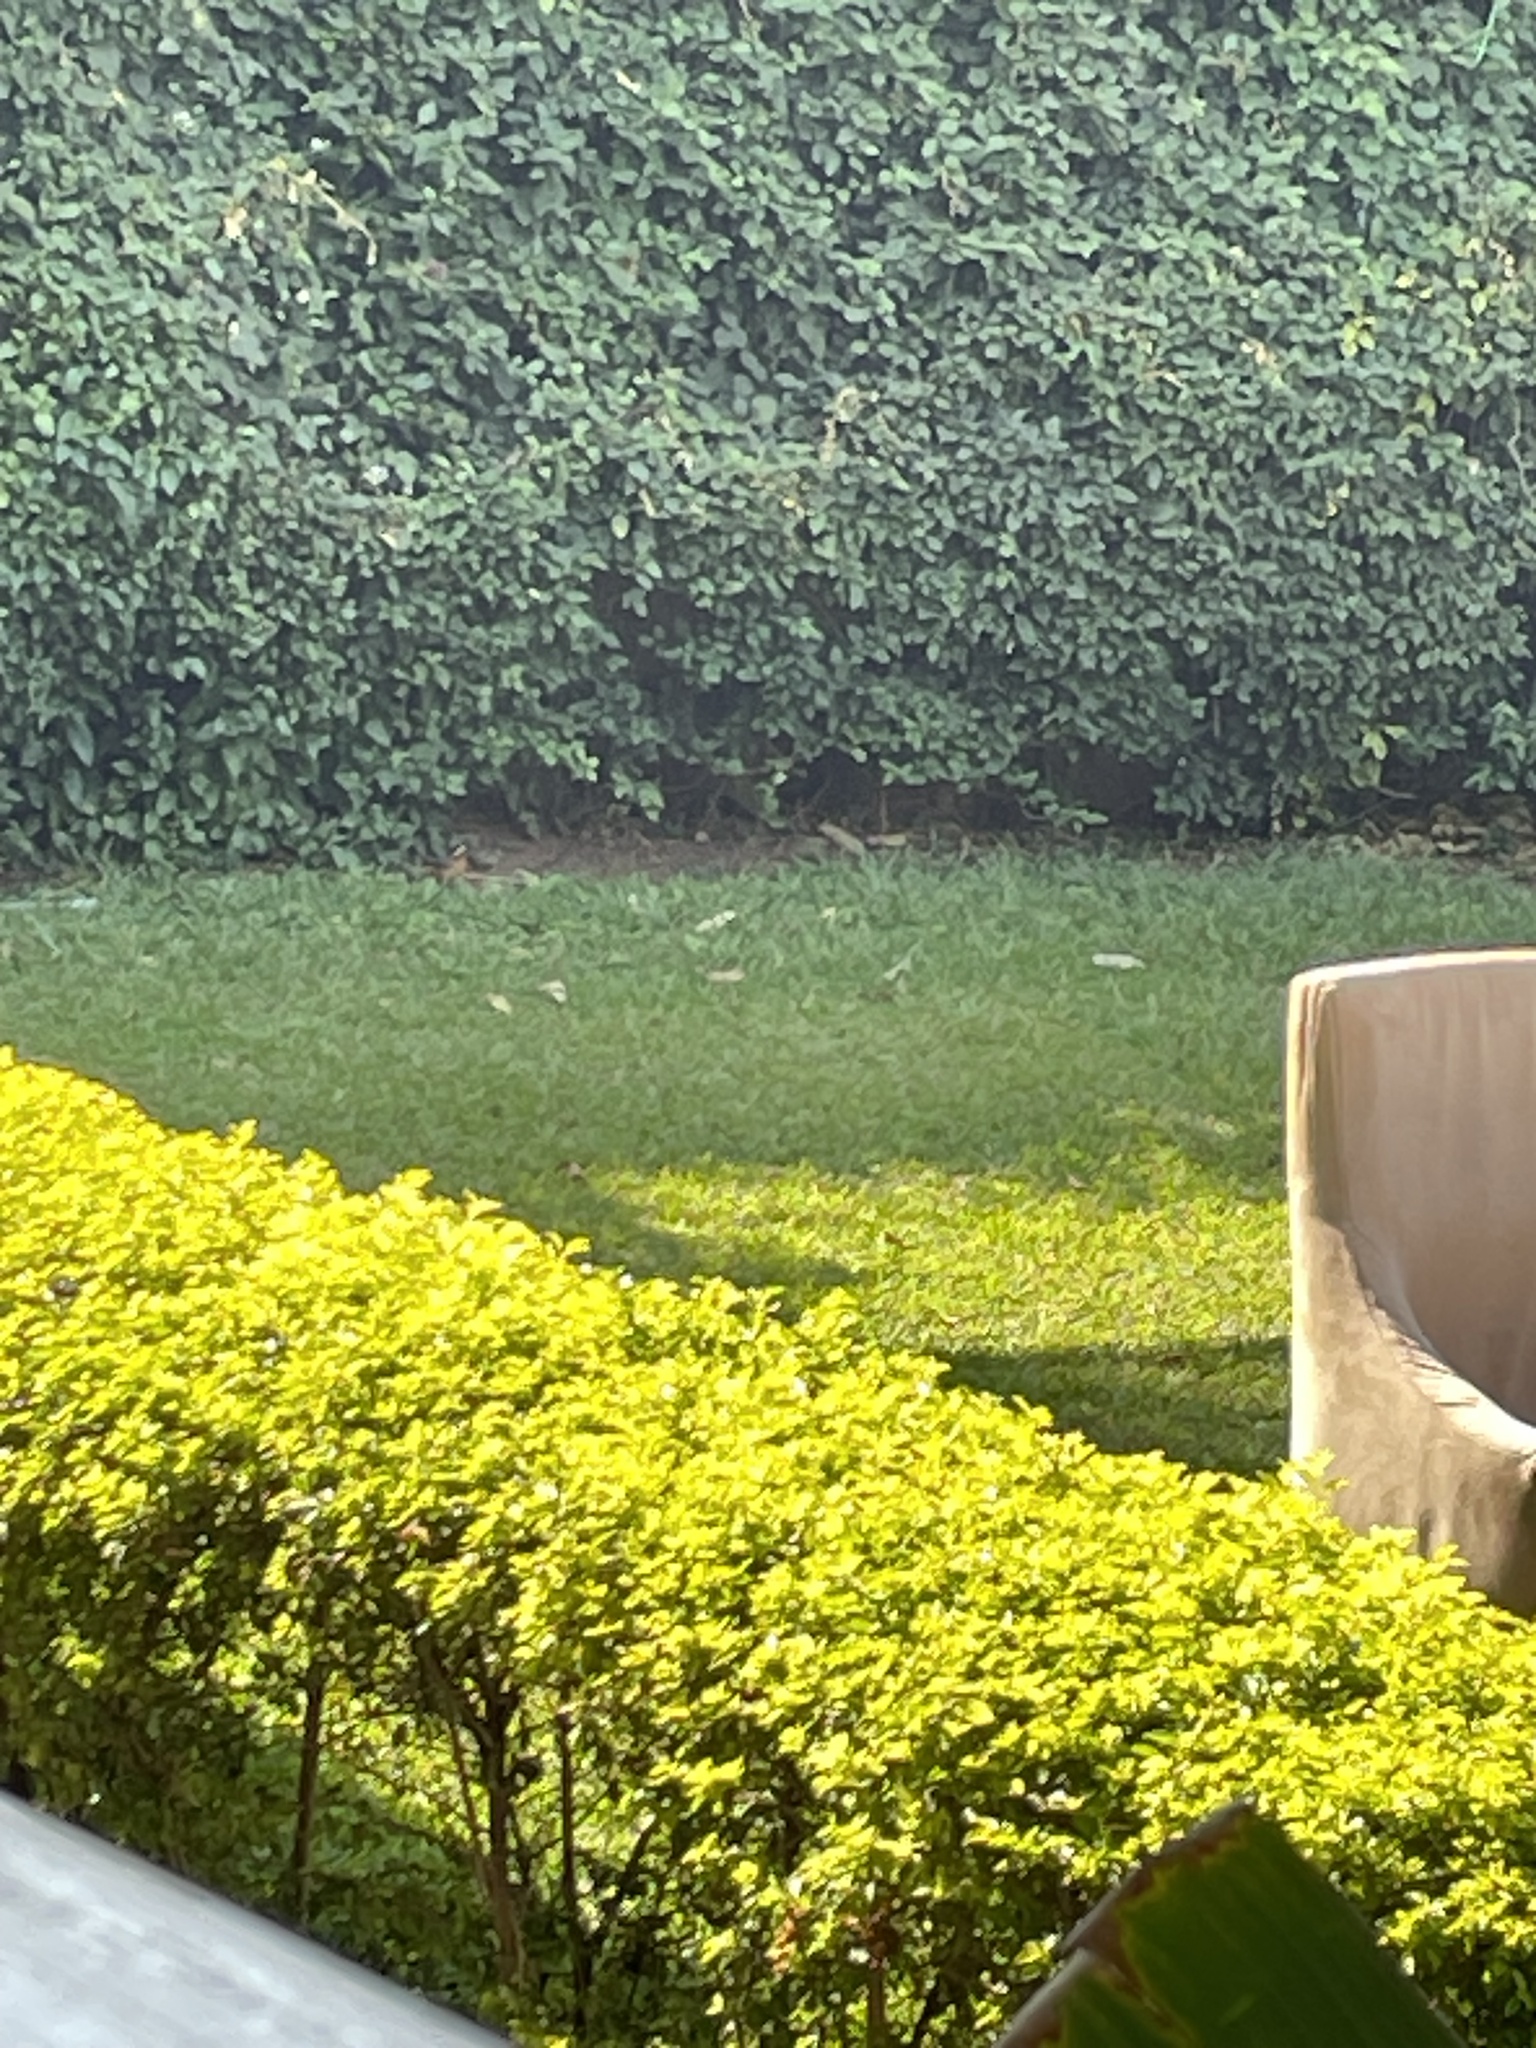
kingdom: Animalia
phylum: Chordata
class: Aves
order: Passeriformes
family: Muscicapidae
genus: Cossypha
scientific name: Cossypha heuglini
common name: White-browed robin-chat
